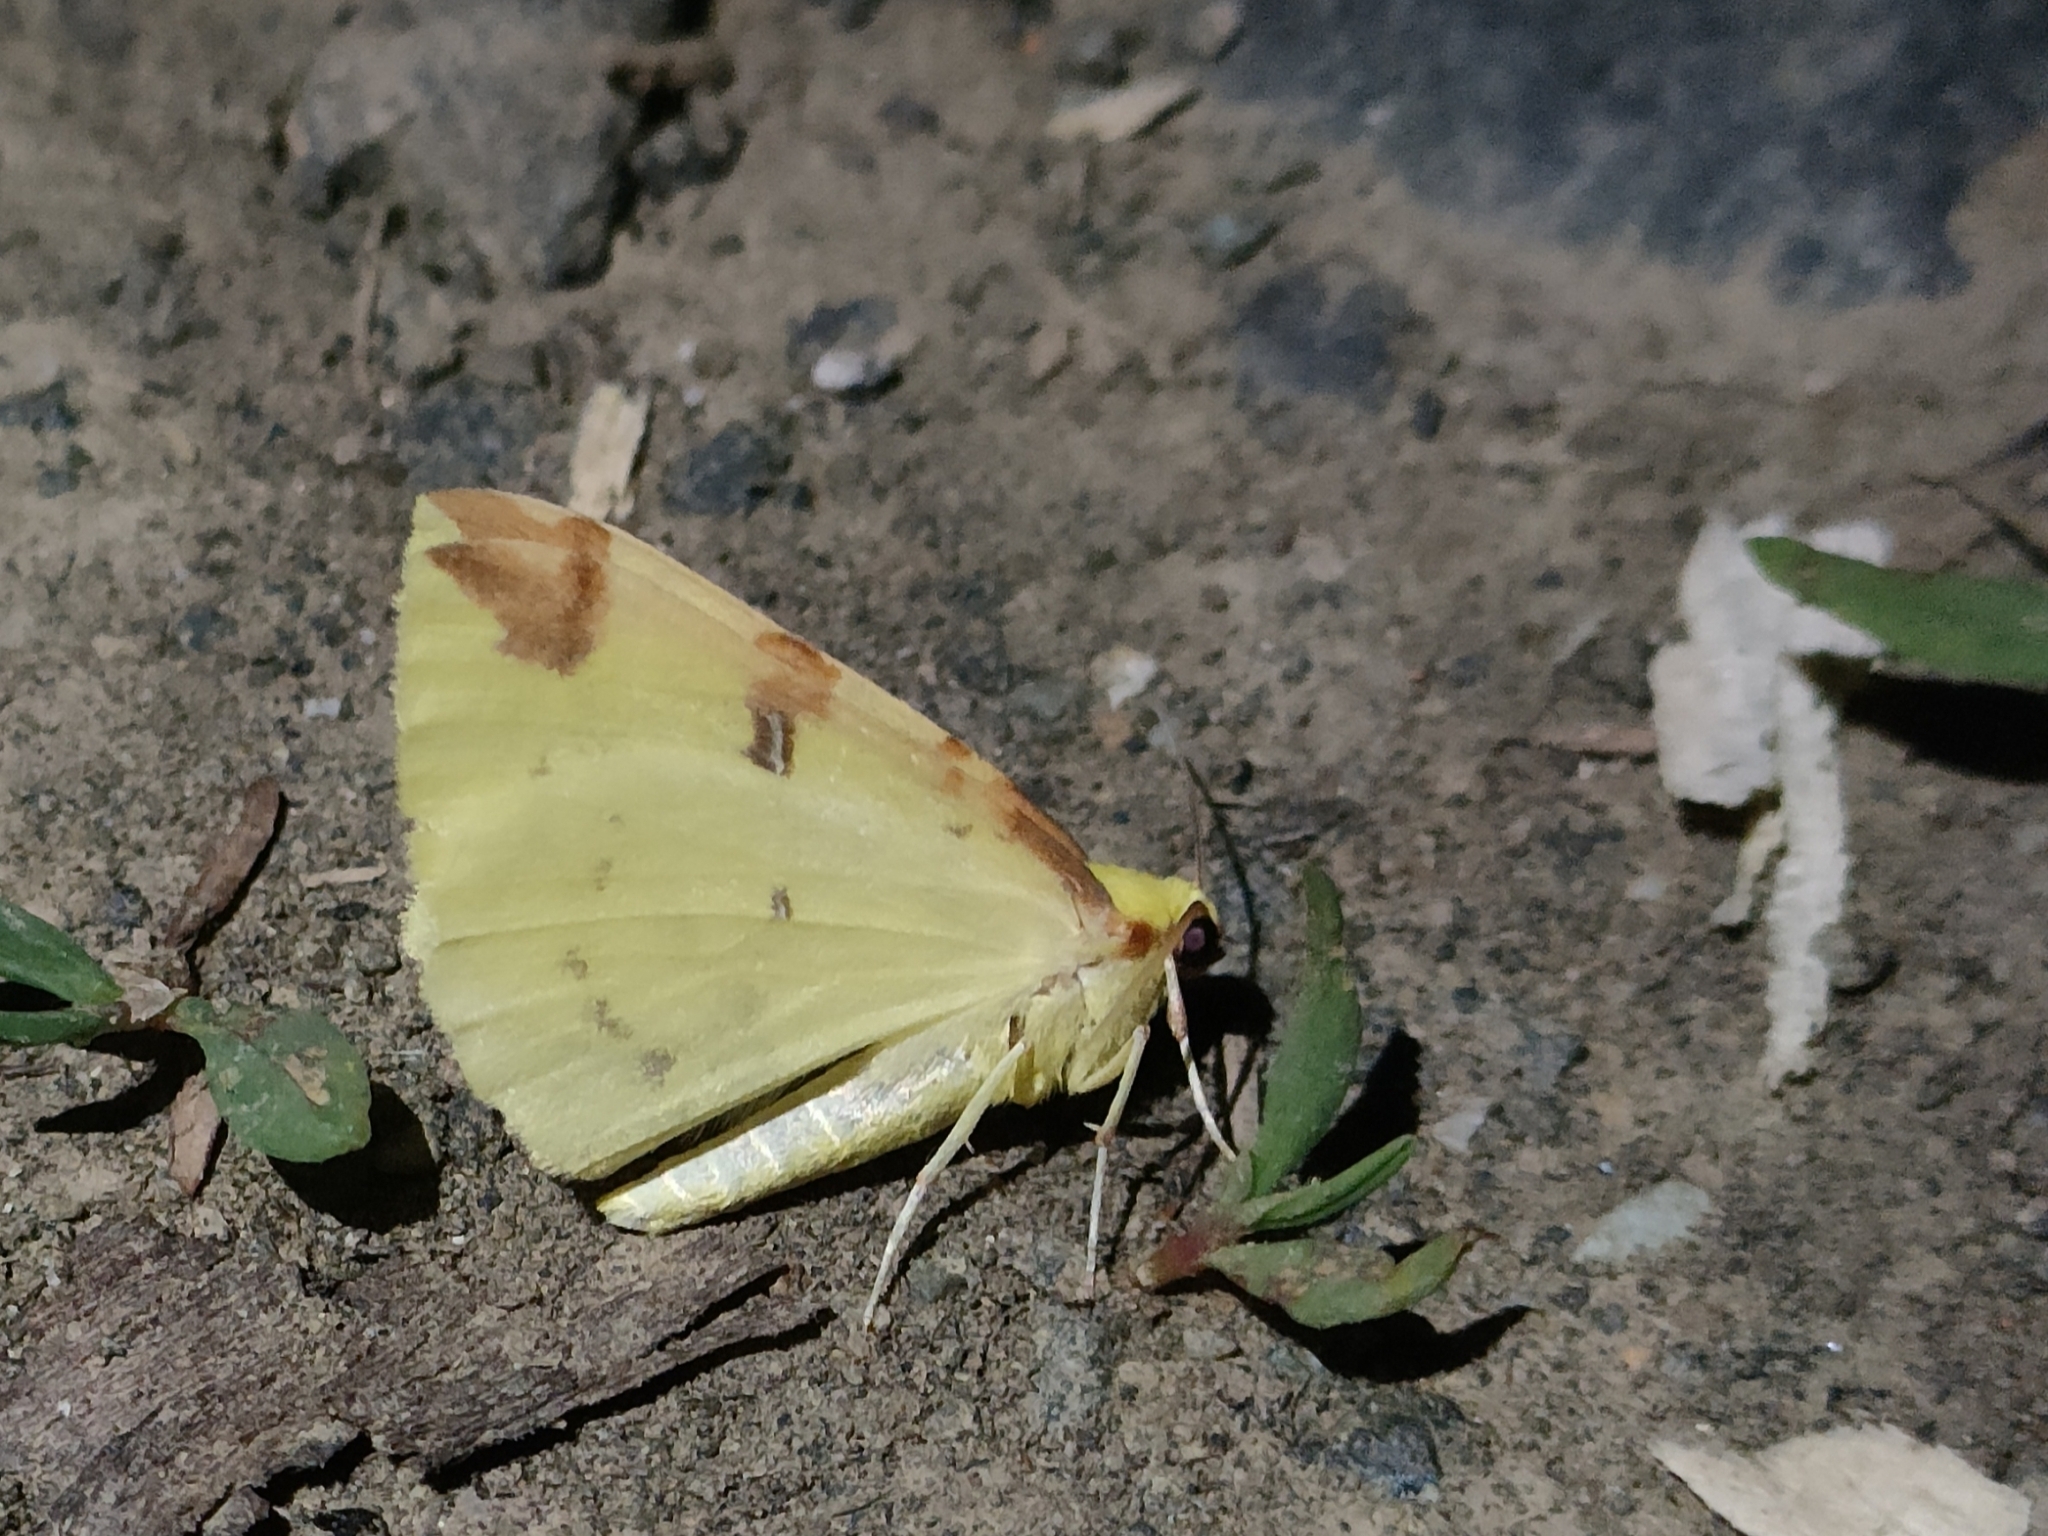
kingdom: Animalia
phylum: Arthropoda
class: Insecta
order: Lepidoptera
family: Geometridae
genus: Opisthograptis
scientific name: Opisthograptis luteolata
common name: Brimstone moth
